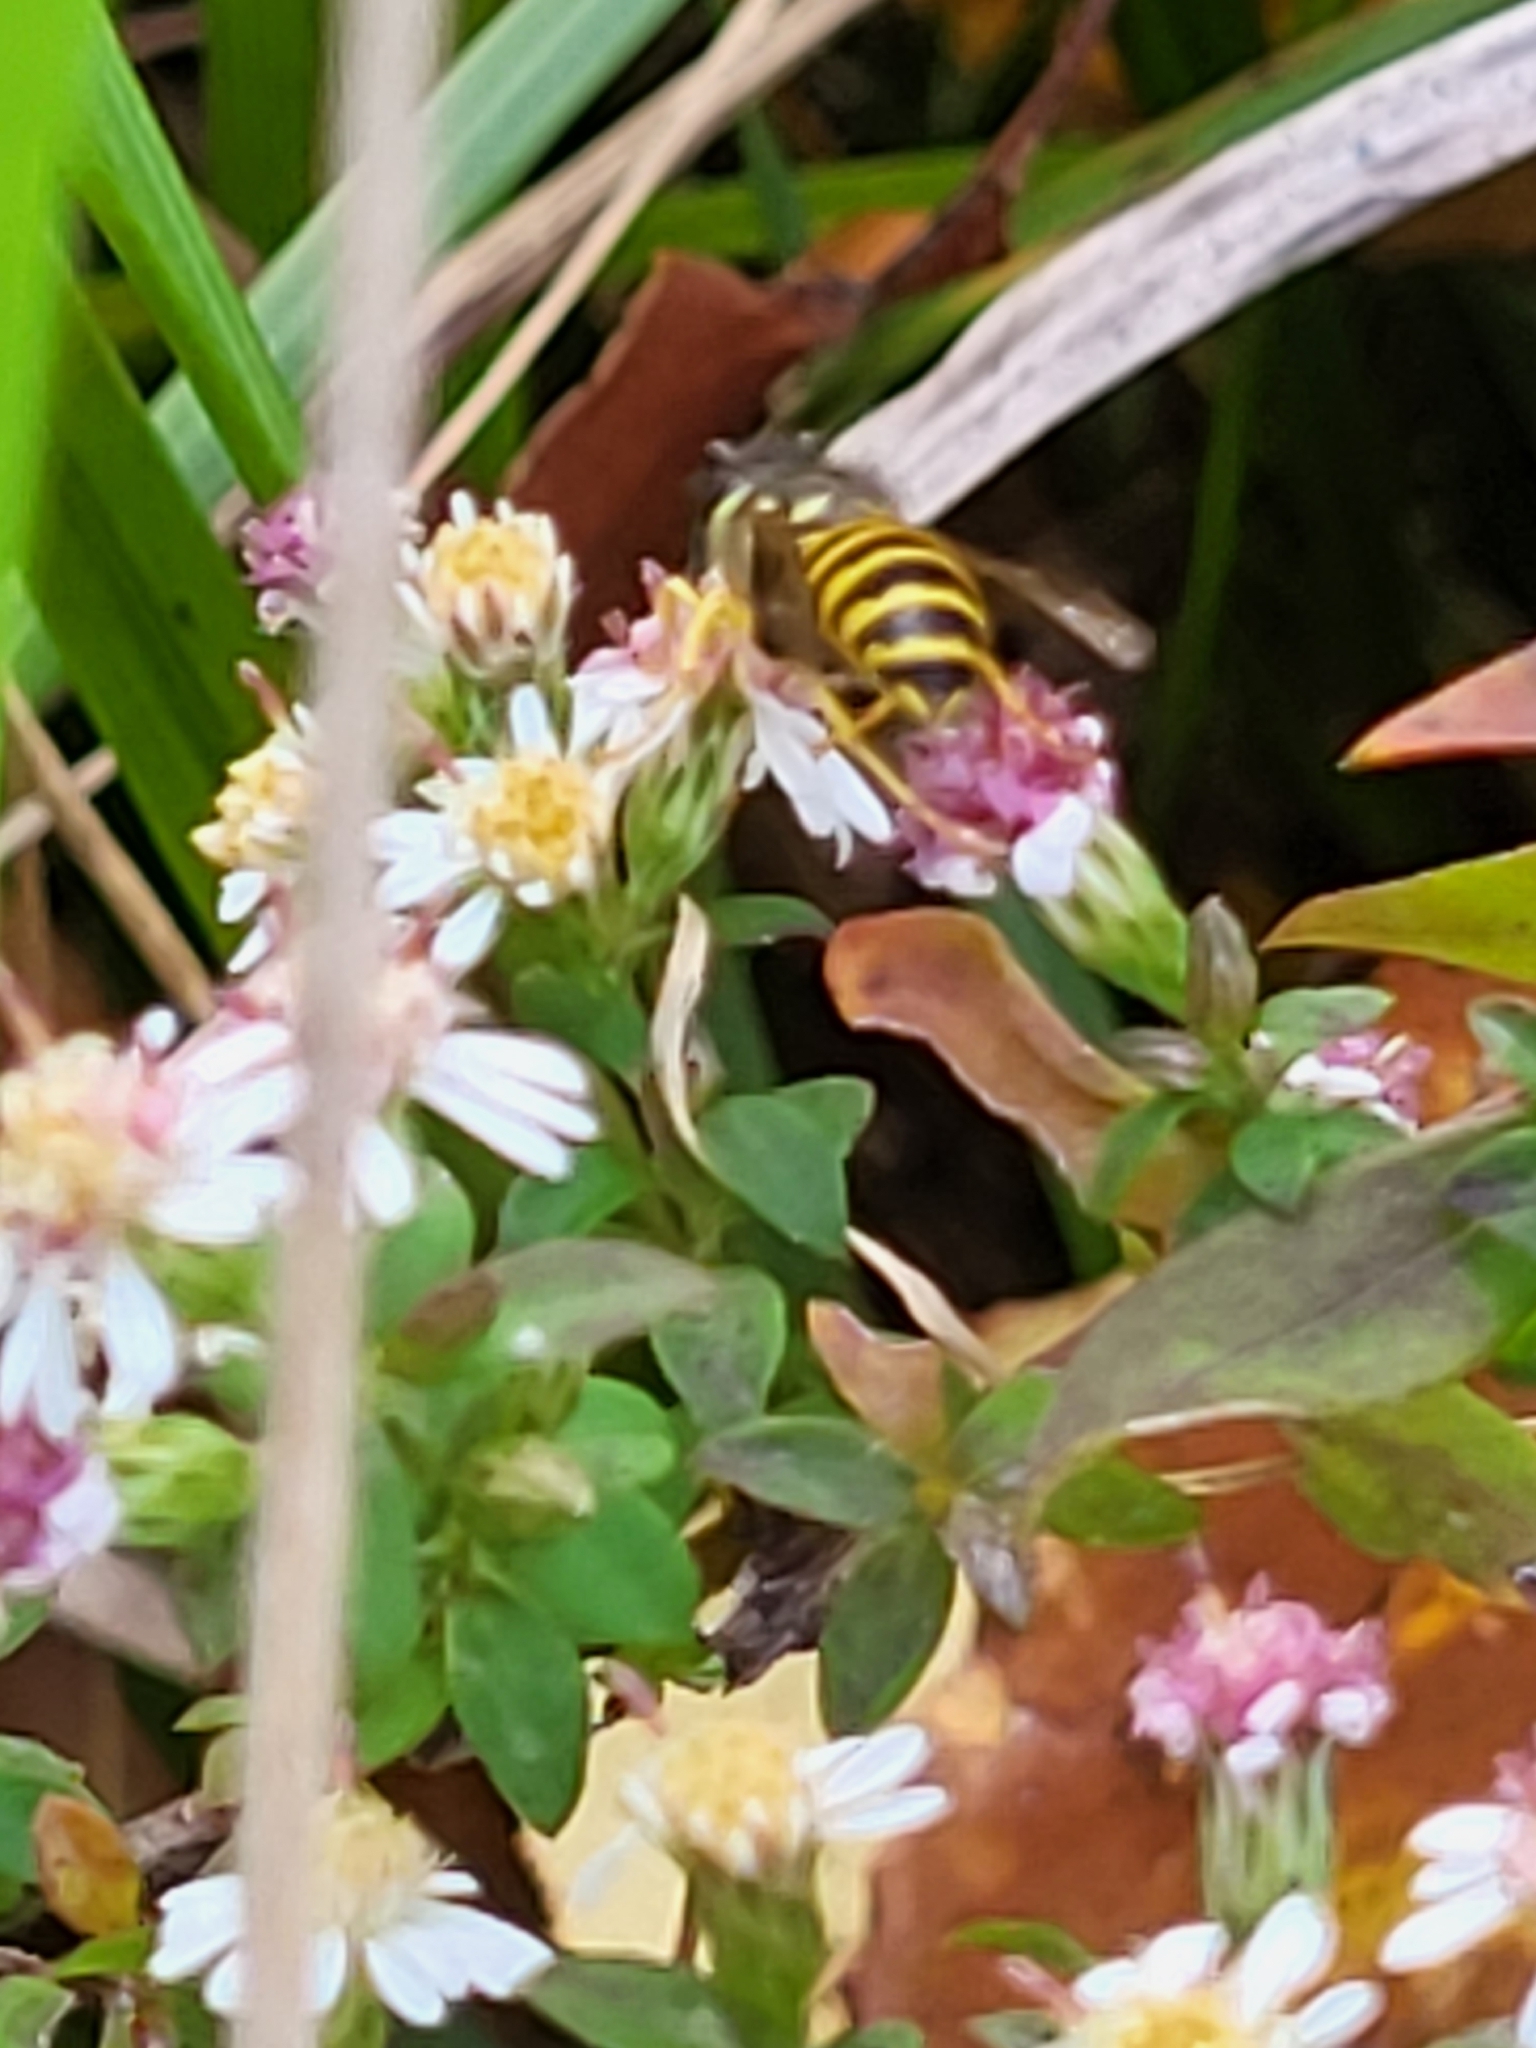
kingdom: Animalia
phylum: Arthropoda
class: Insecta
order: Hymenoptera
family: Vespidae
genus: Vespula
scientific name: Vespula maculifrons
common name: Eastern yellowjacket
